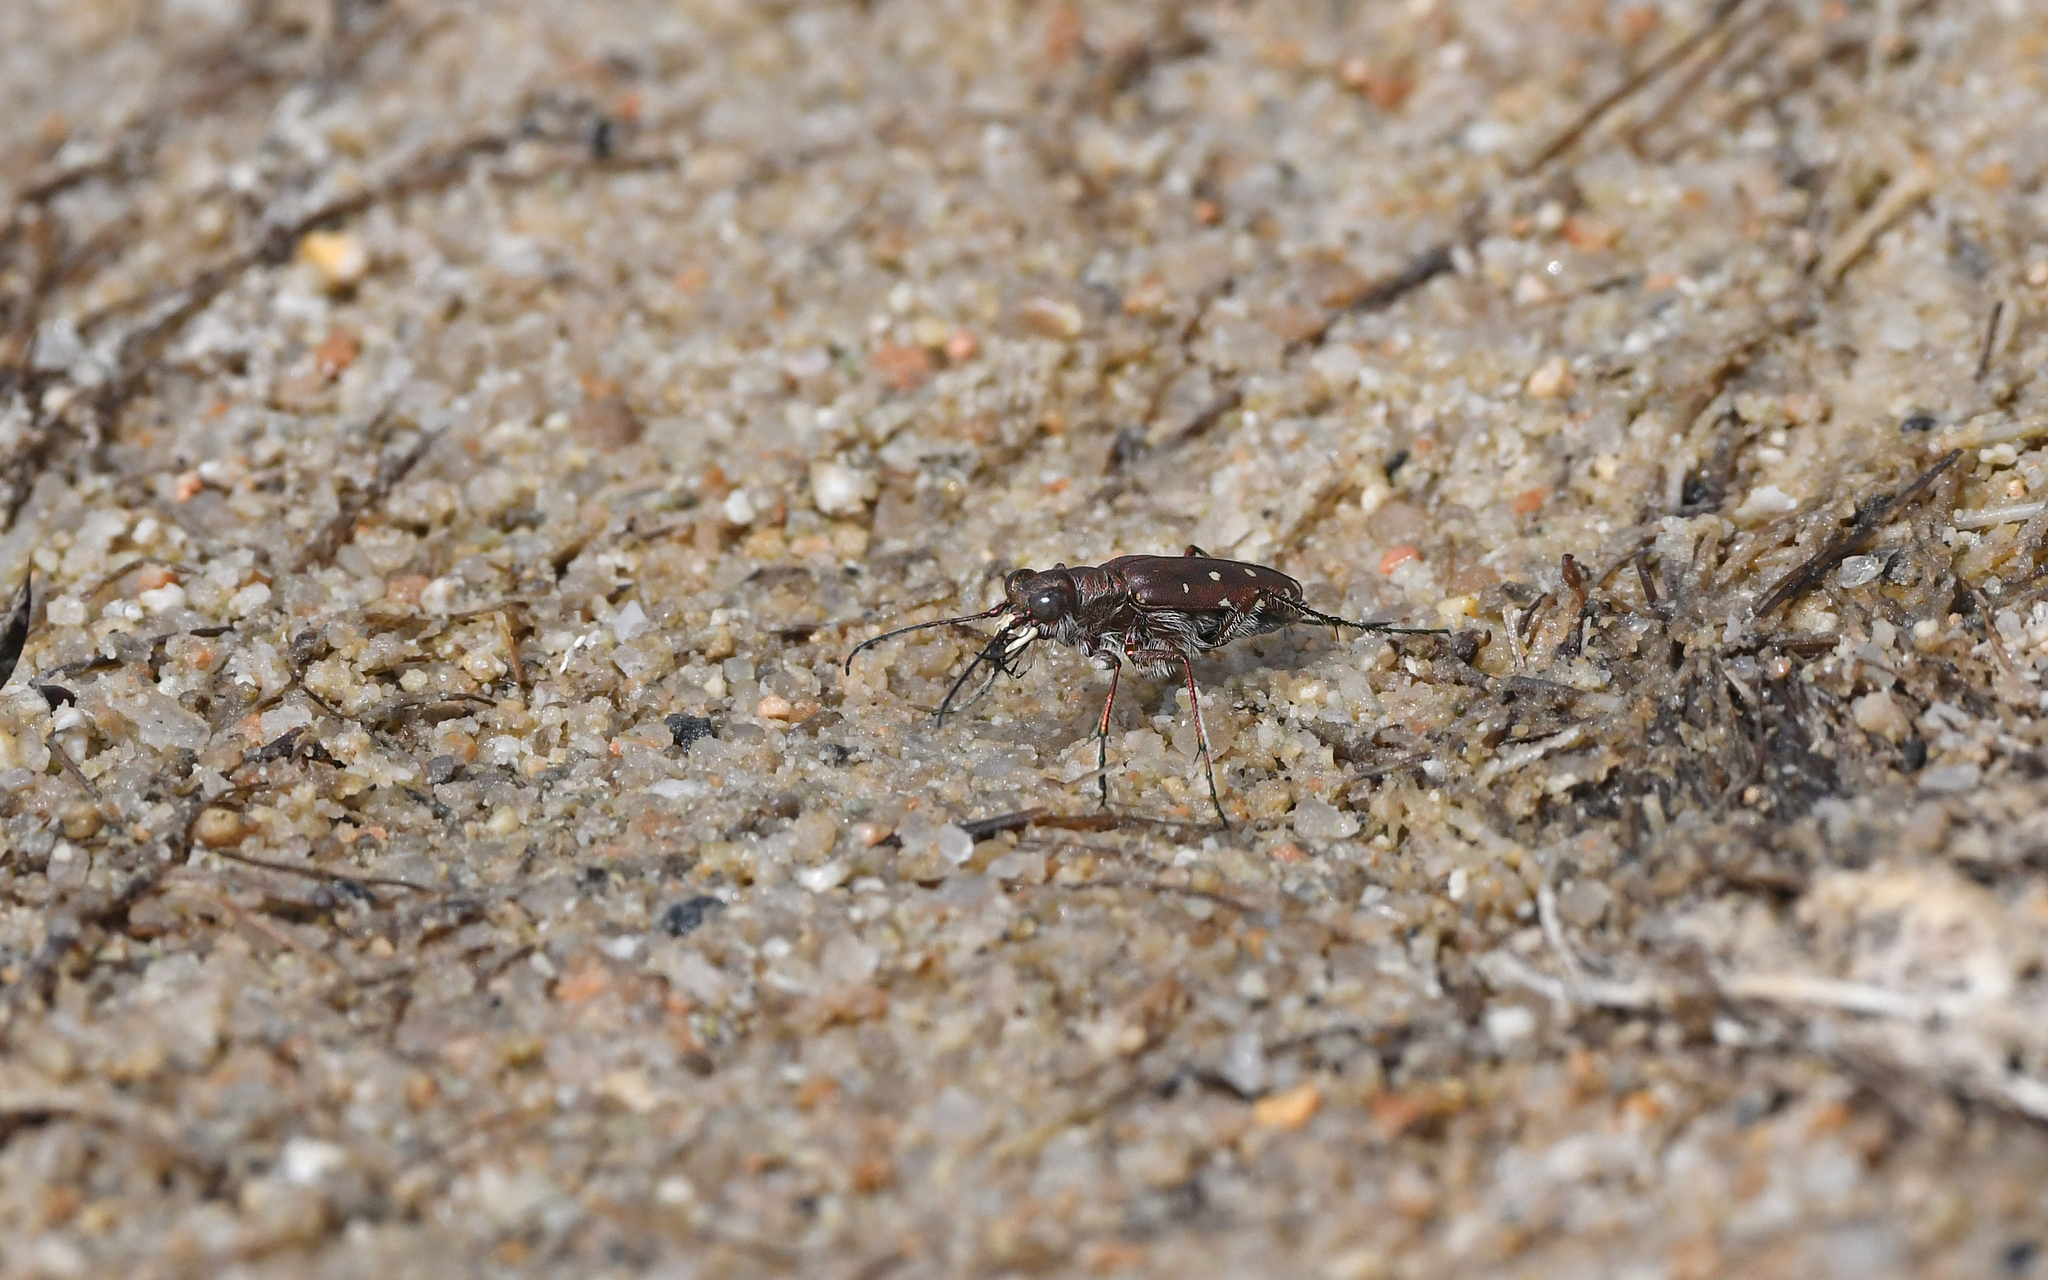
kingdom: Animalia
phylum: Arthropoda
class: Insecta
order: Coleoptera
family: Carabidae
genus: Cicindela
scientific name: Cicindela littoralis
